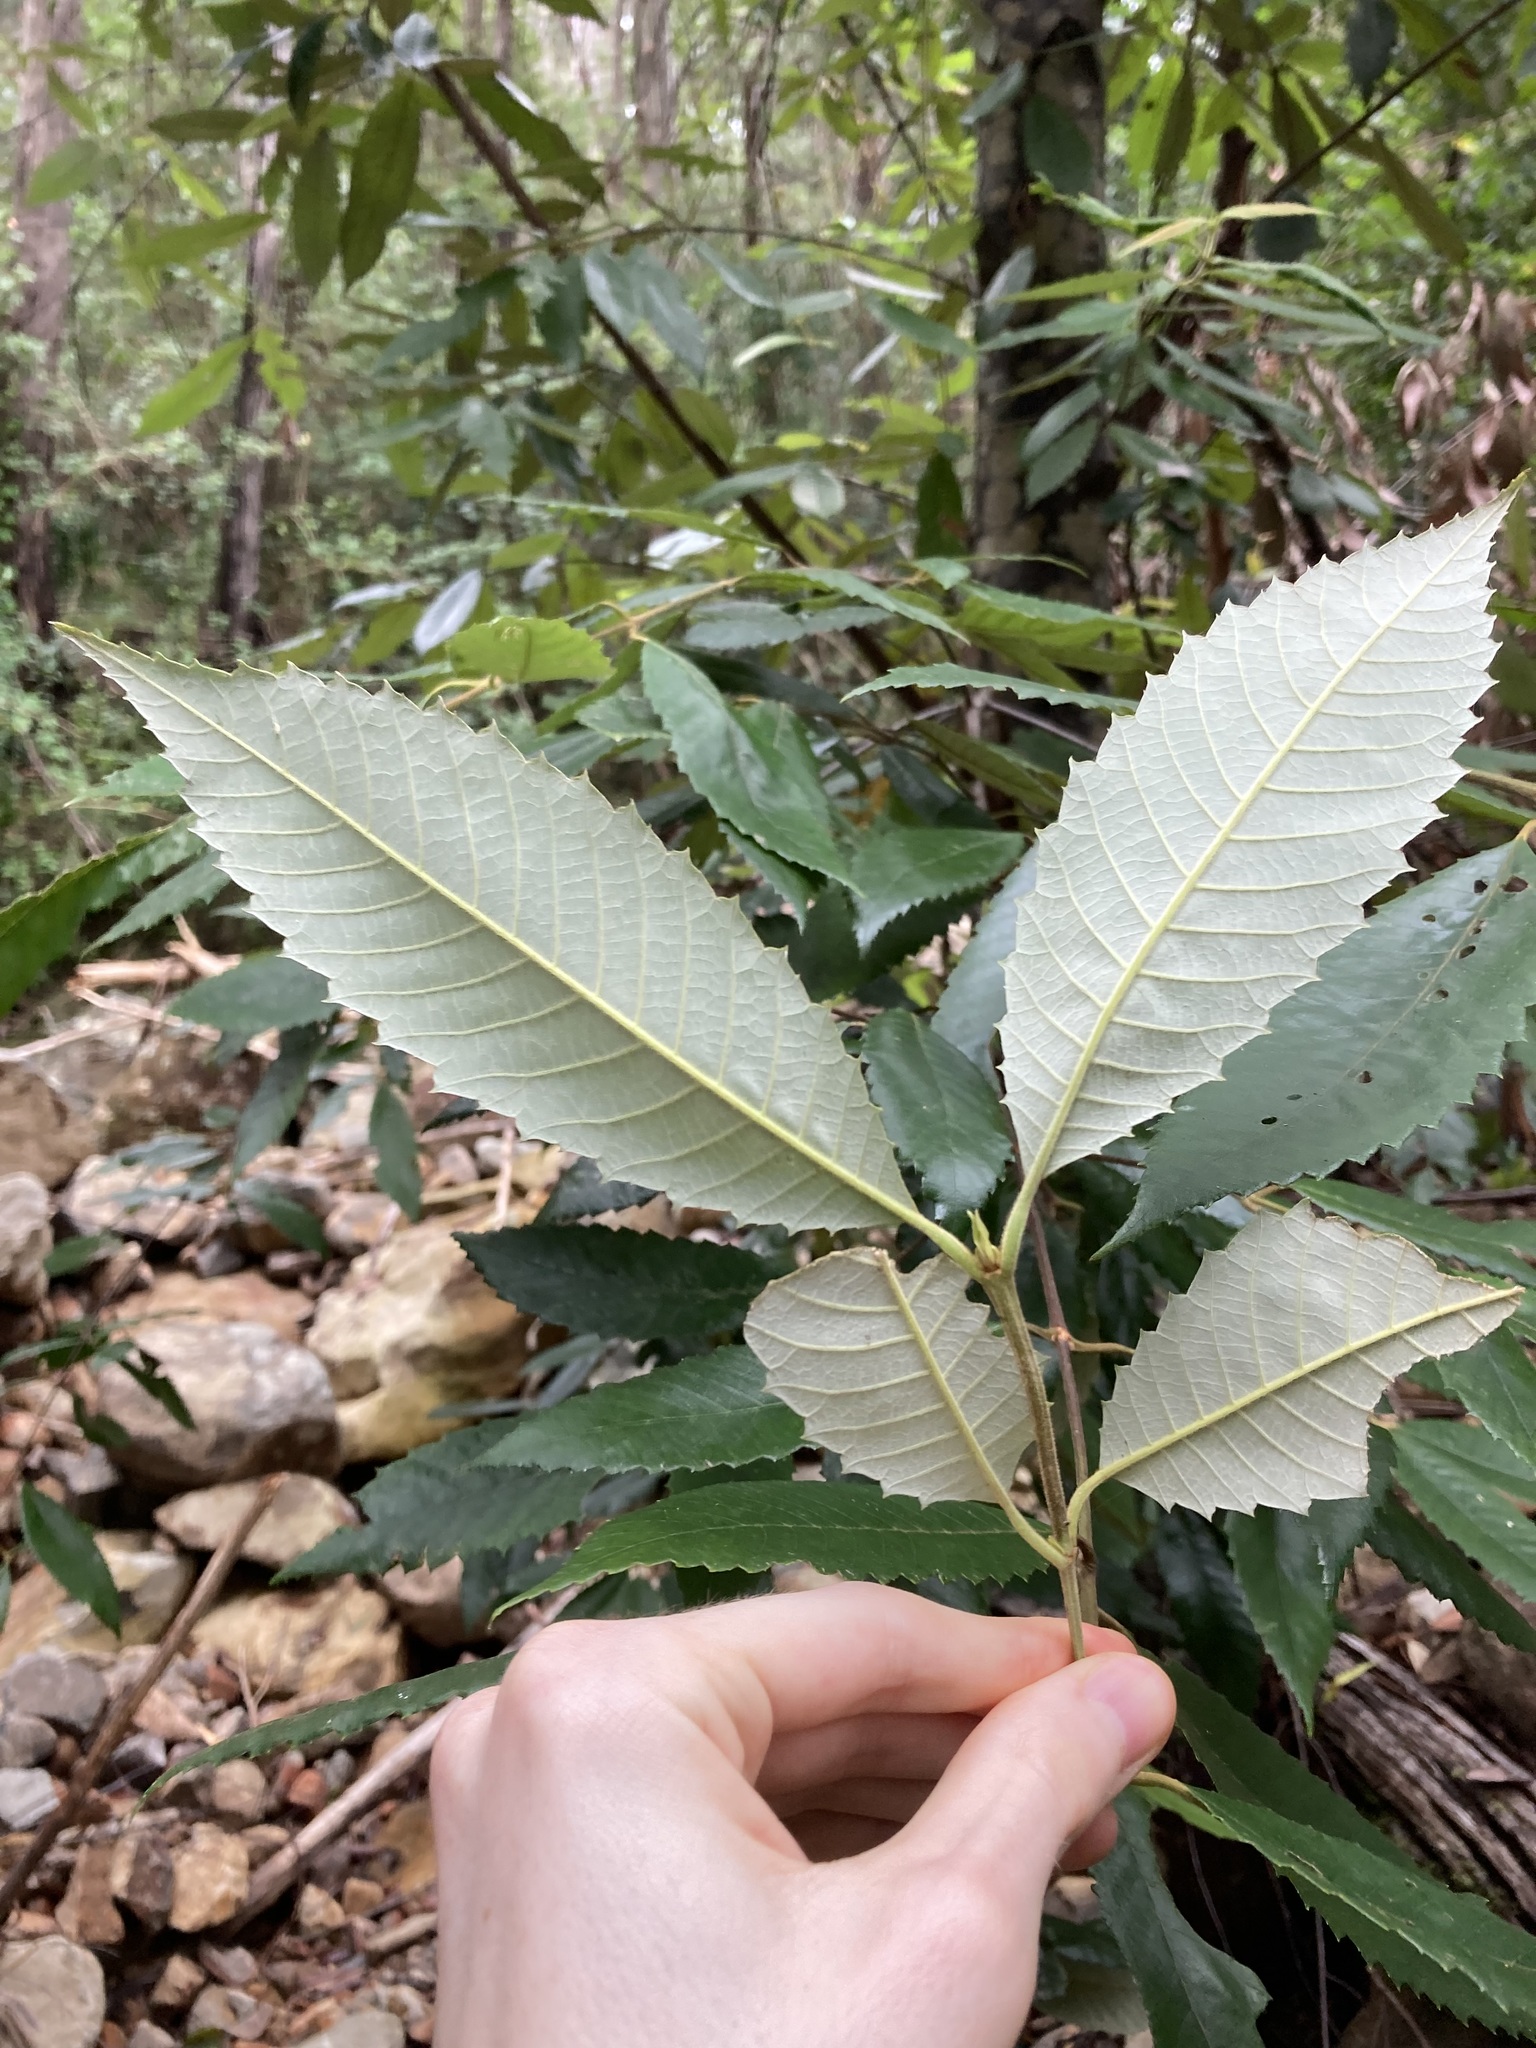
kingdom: Plantae
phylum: Tracheophyta
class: Magnoliopsida
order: Oxalidales
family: Cunoniaceae
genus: Callicoma
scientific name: Callicoma serratifolia
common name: Black wattle
